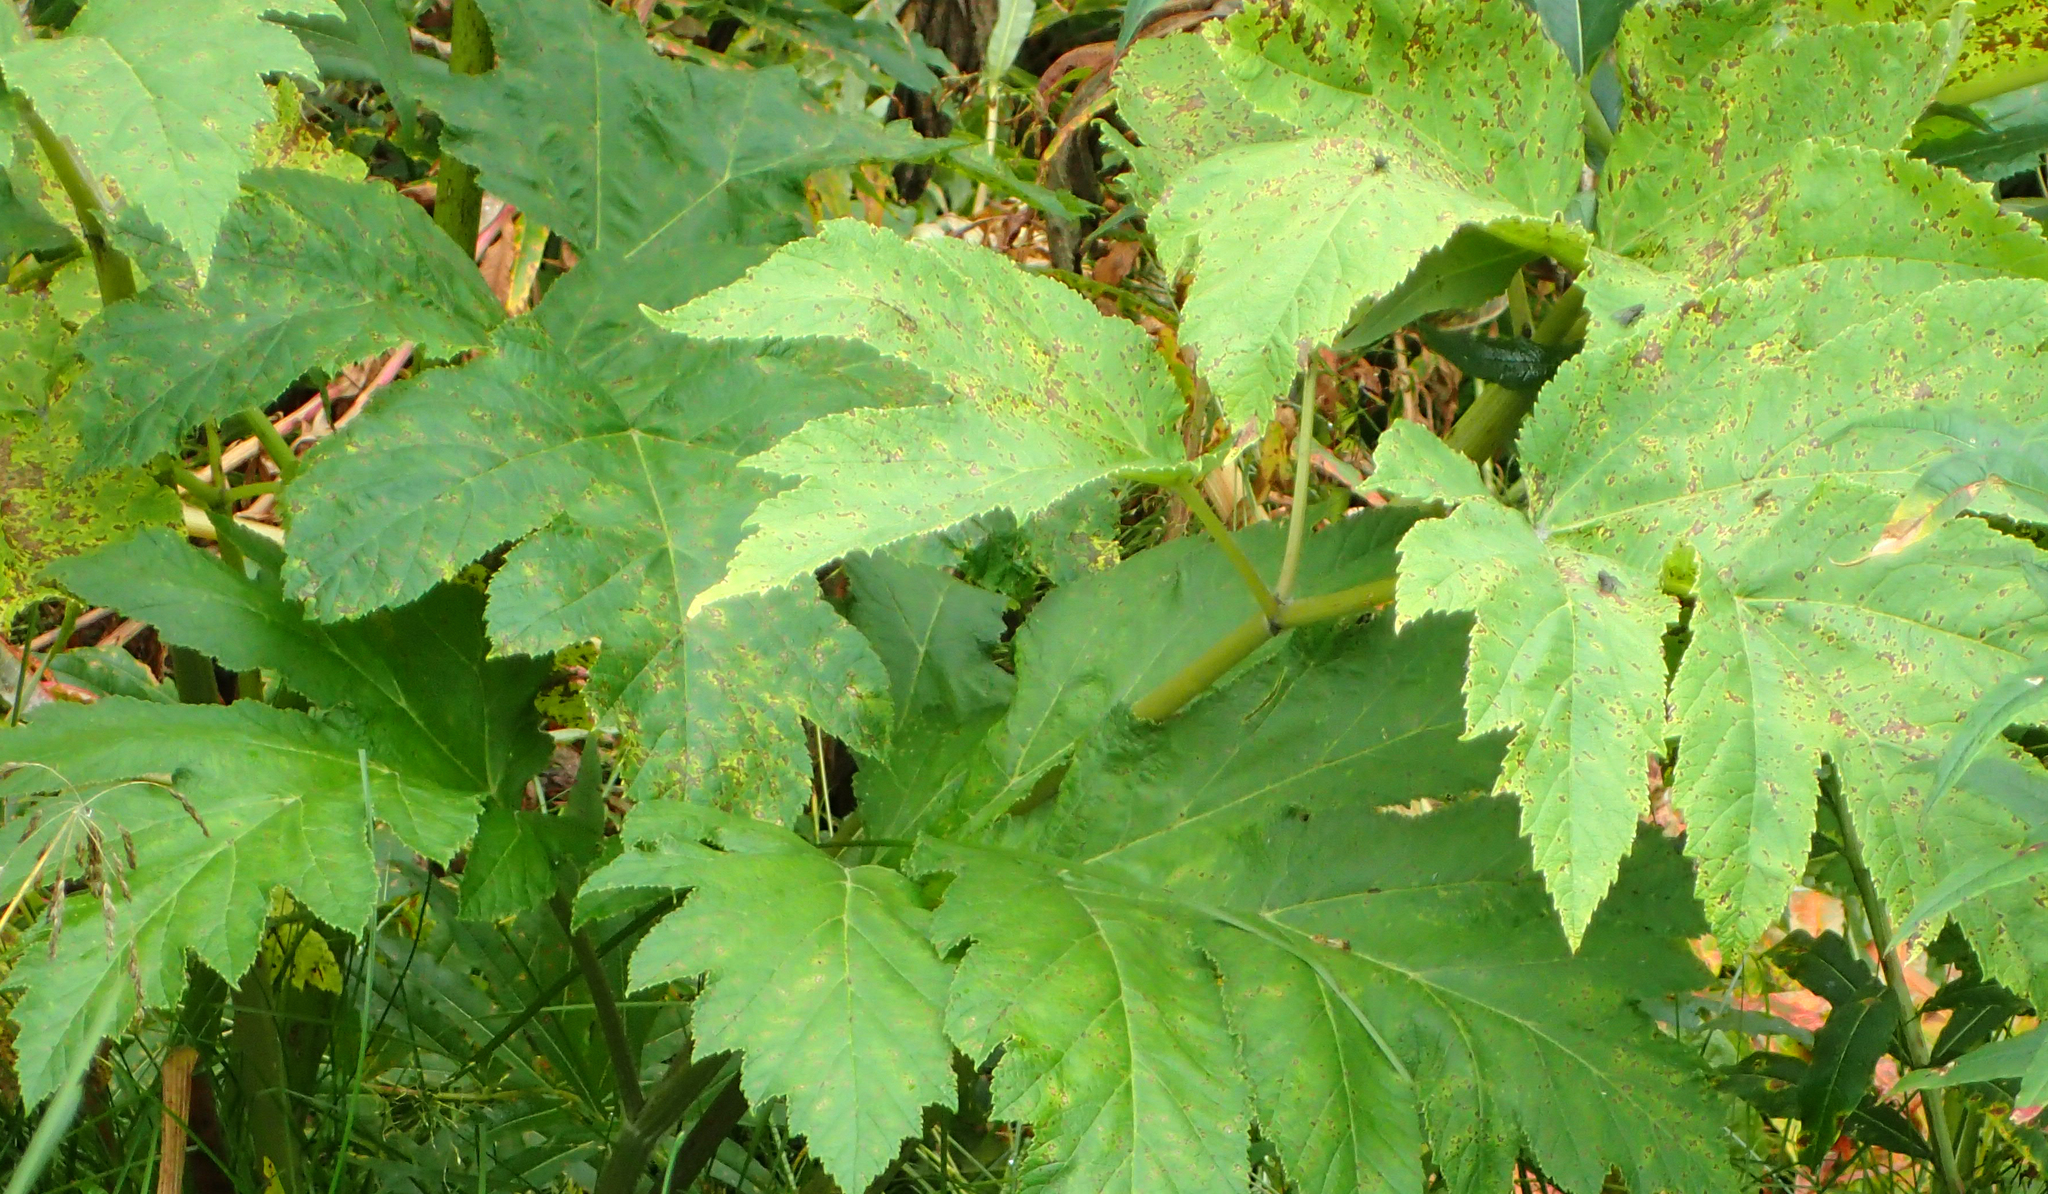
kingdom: Plantae
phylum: Tracheophyta
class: Magnoliopsida
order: Apiales
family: Apiaceae
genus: Heracleum
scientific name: Heracleum maximum
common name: American cow parsnip
